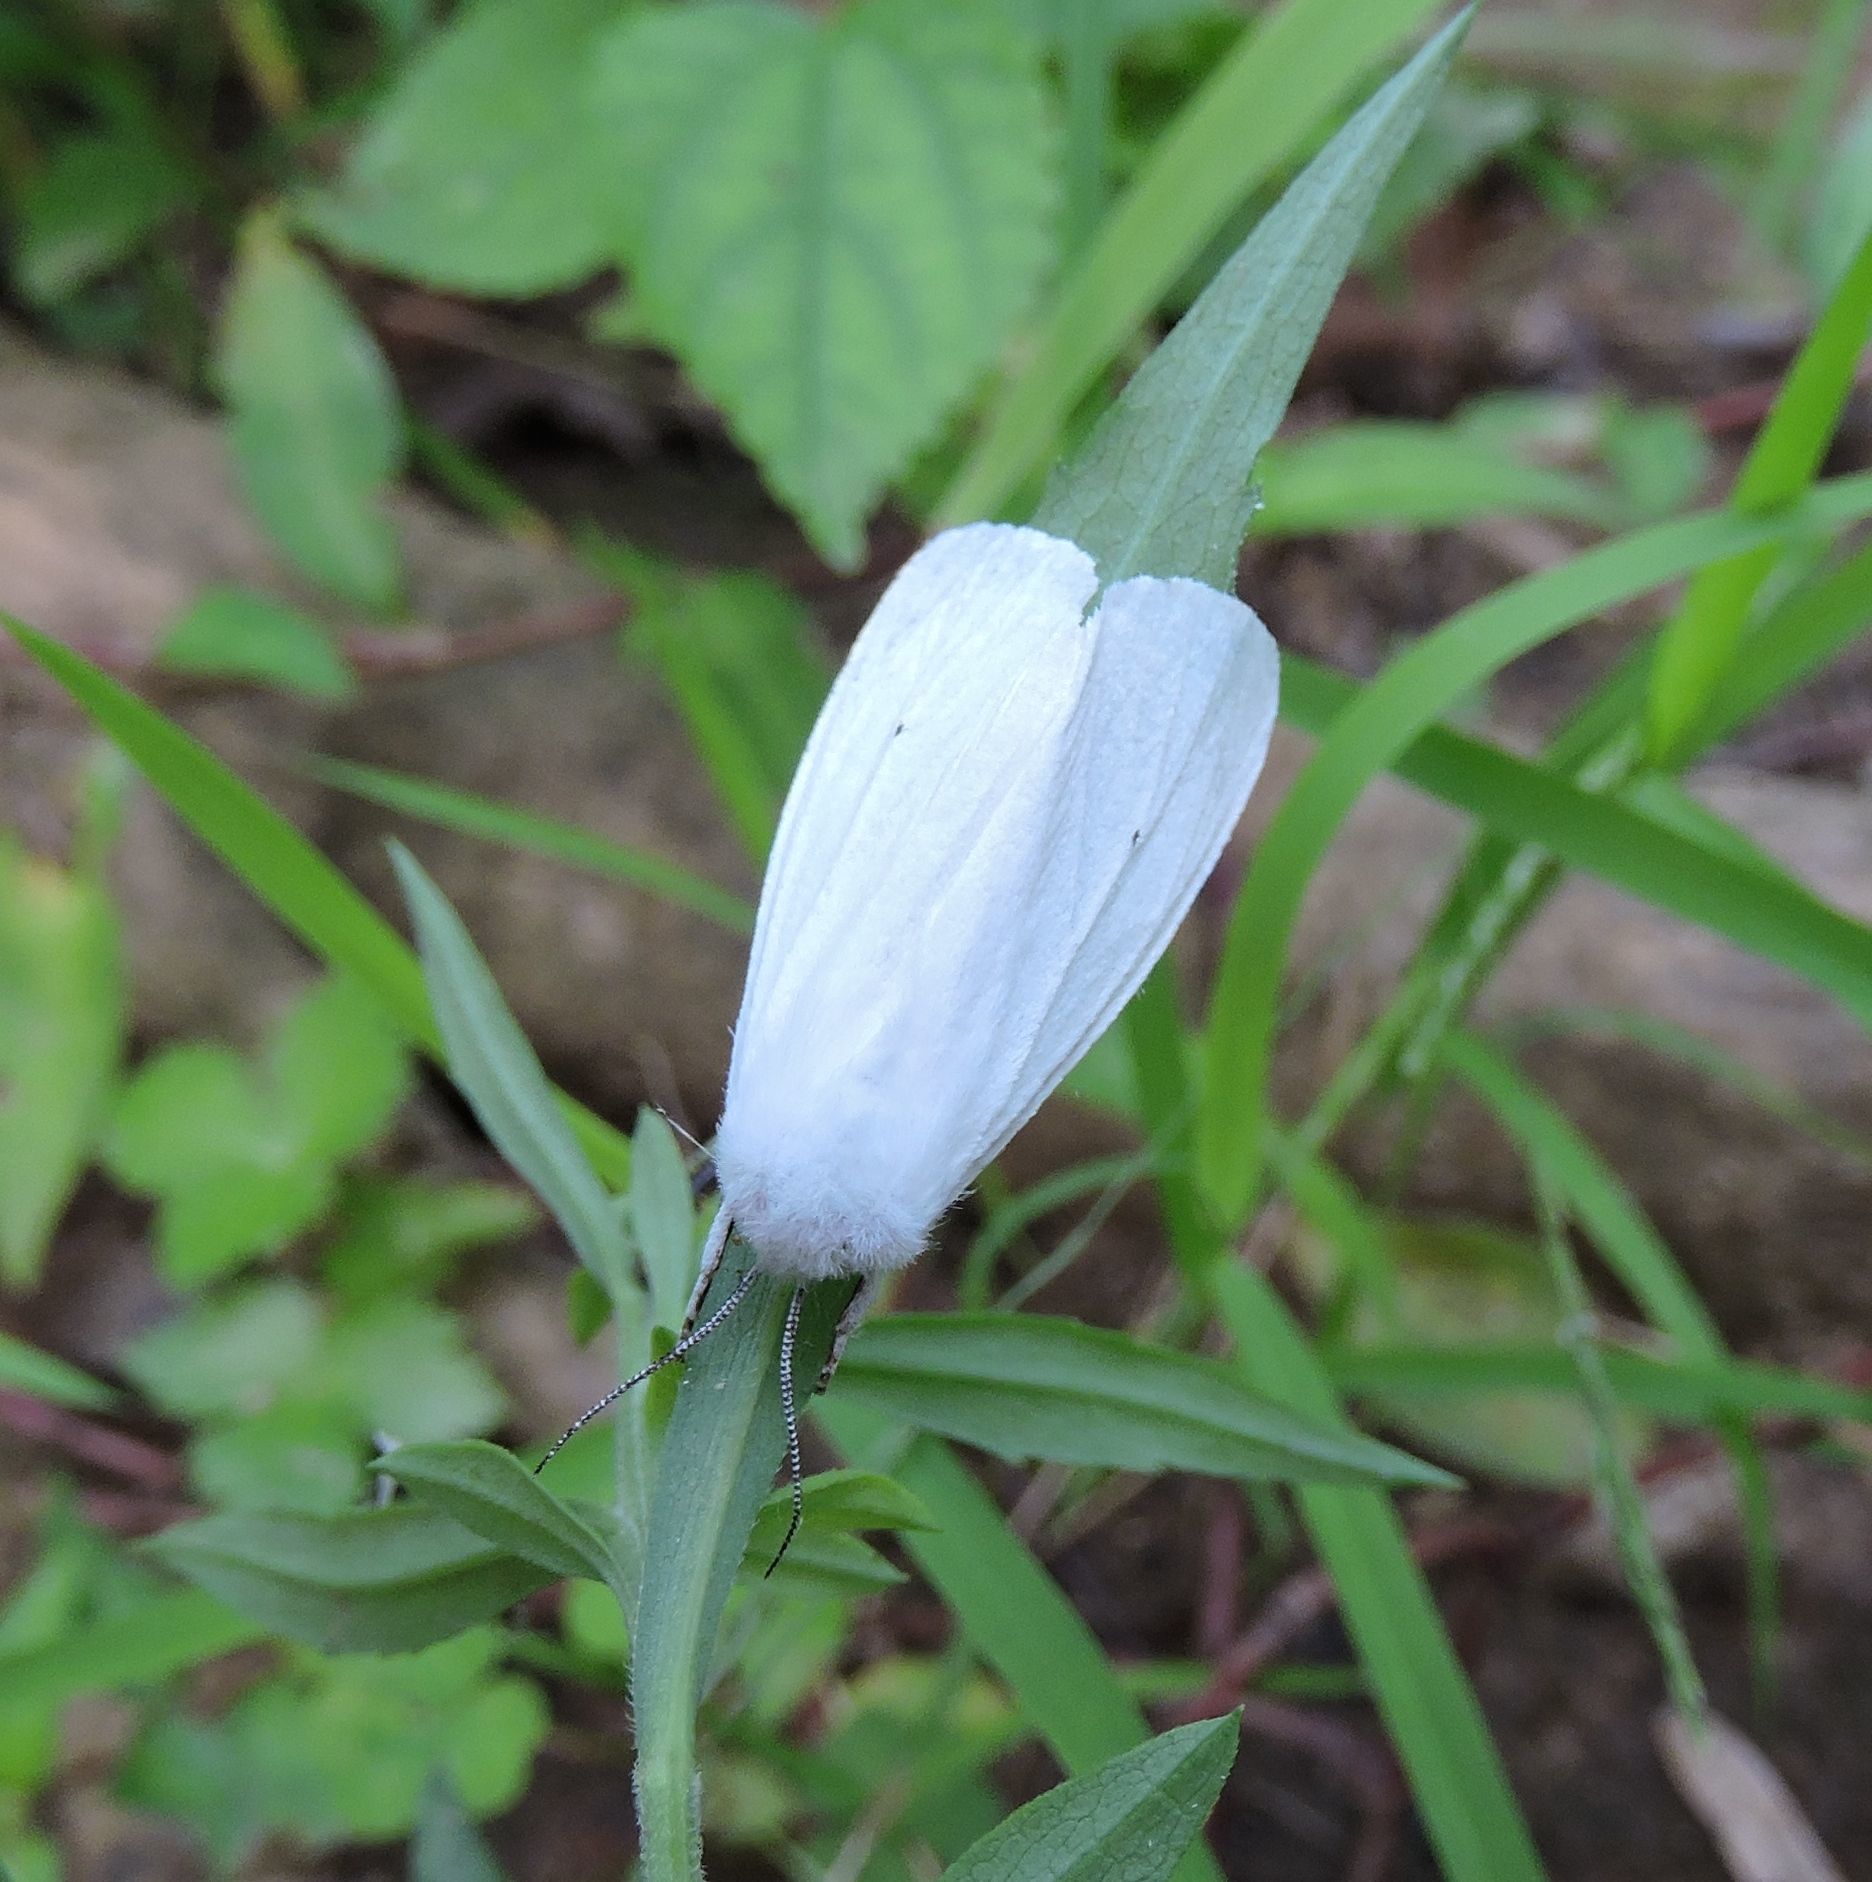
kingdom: Animalia
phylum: Arthropoda
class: Insecta
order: Lepidoptera
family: Erebidae
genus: Spilosoma
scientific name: Spilosoma virginica
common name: Virginia tiger moth
